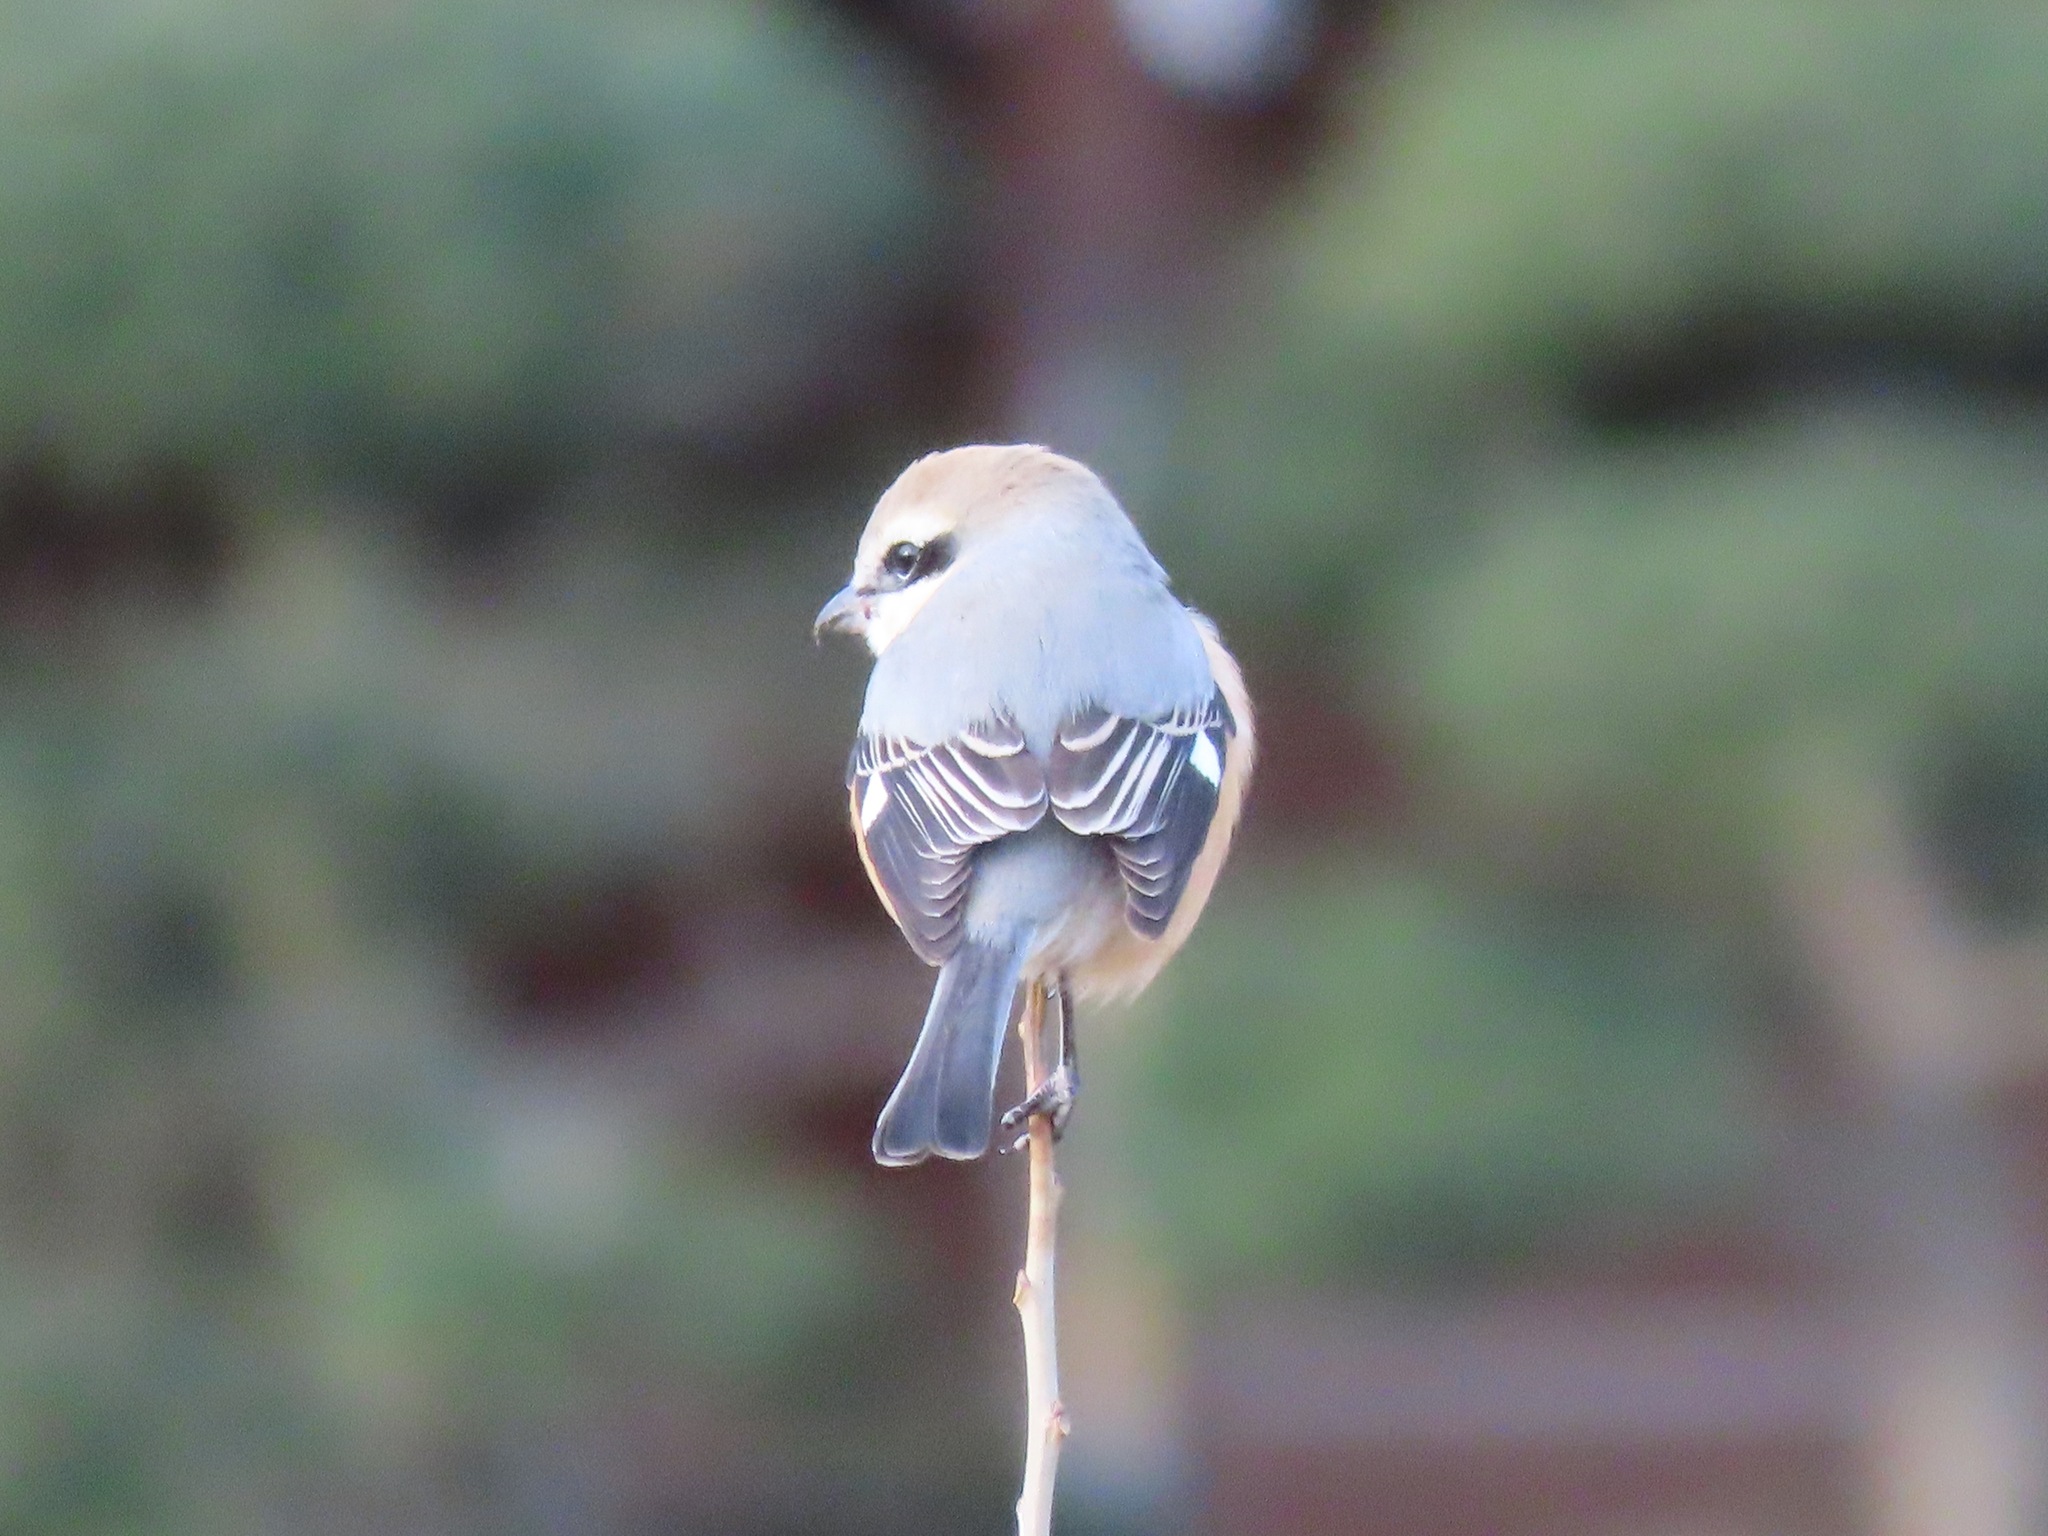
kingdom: Animalia
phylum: Chordata
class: Aves
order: Passeriformes
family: Laniidae
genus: Lanius
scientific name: Lanius bucephalus
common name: Bull-headed shrike
